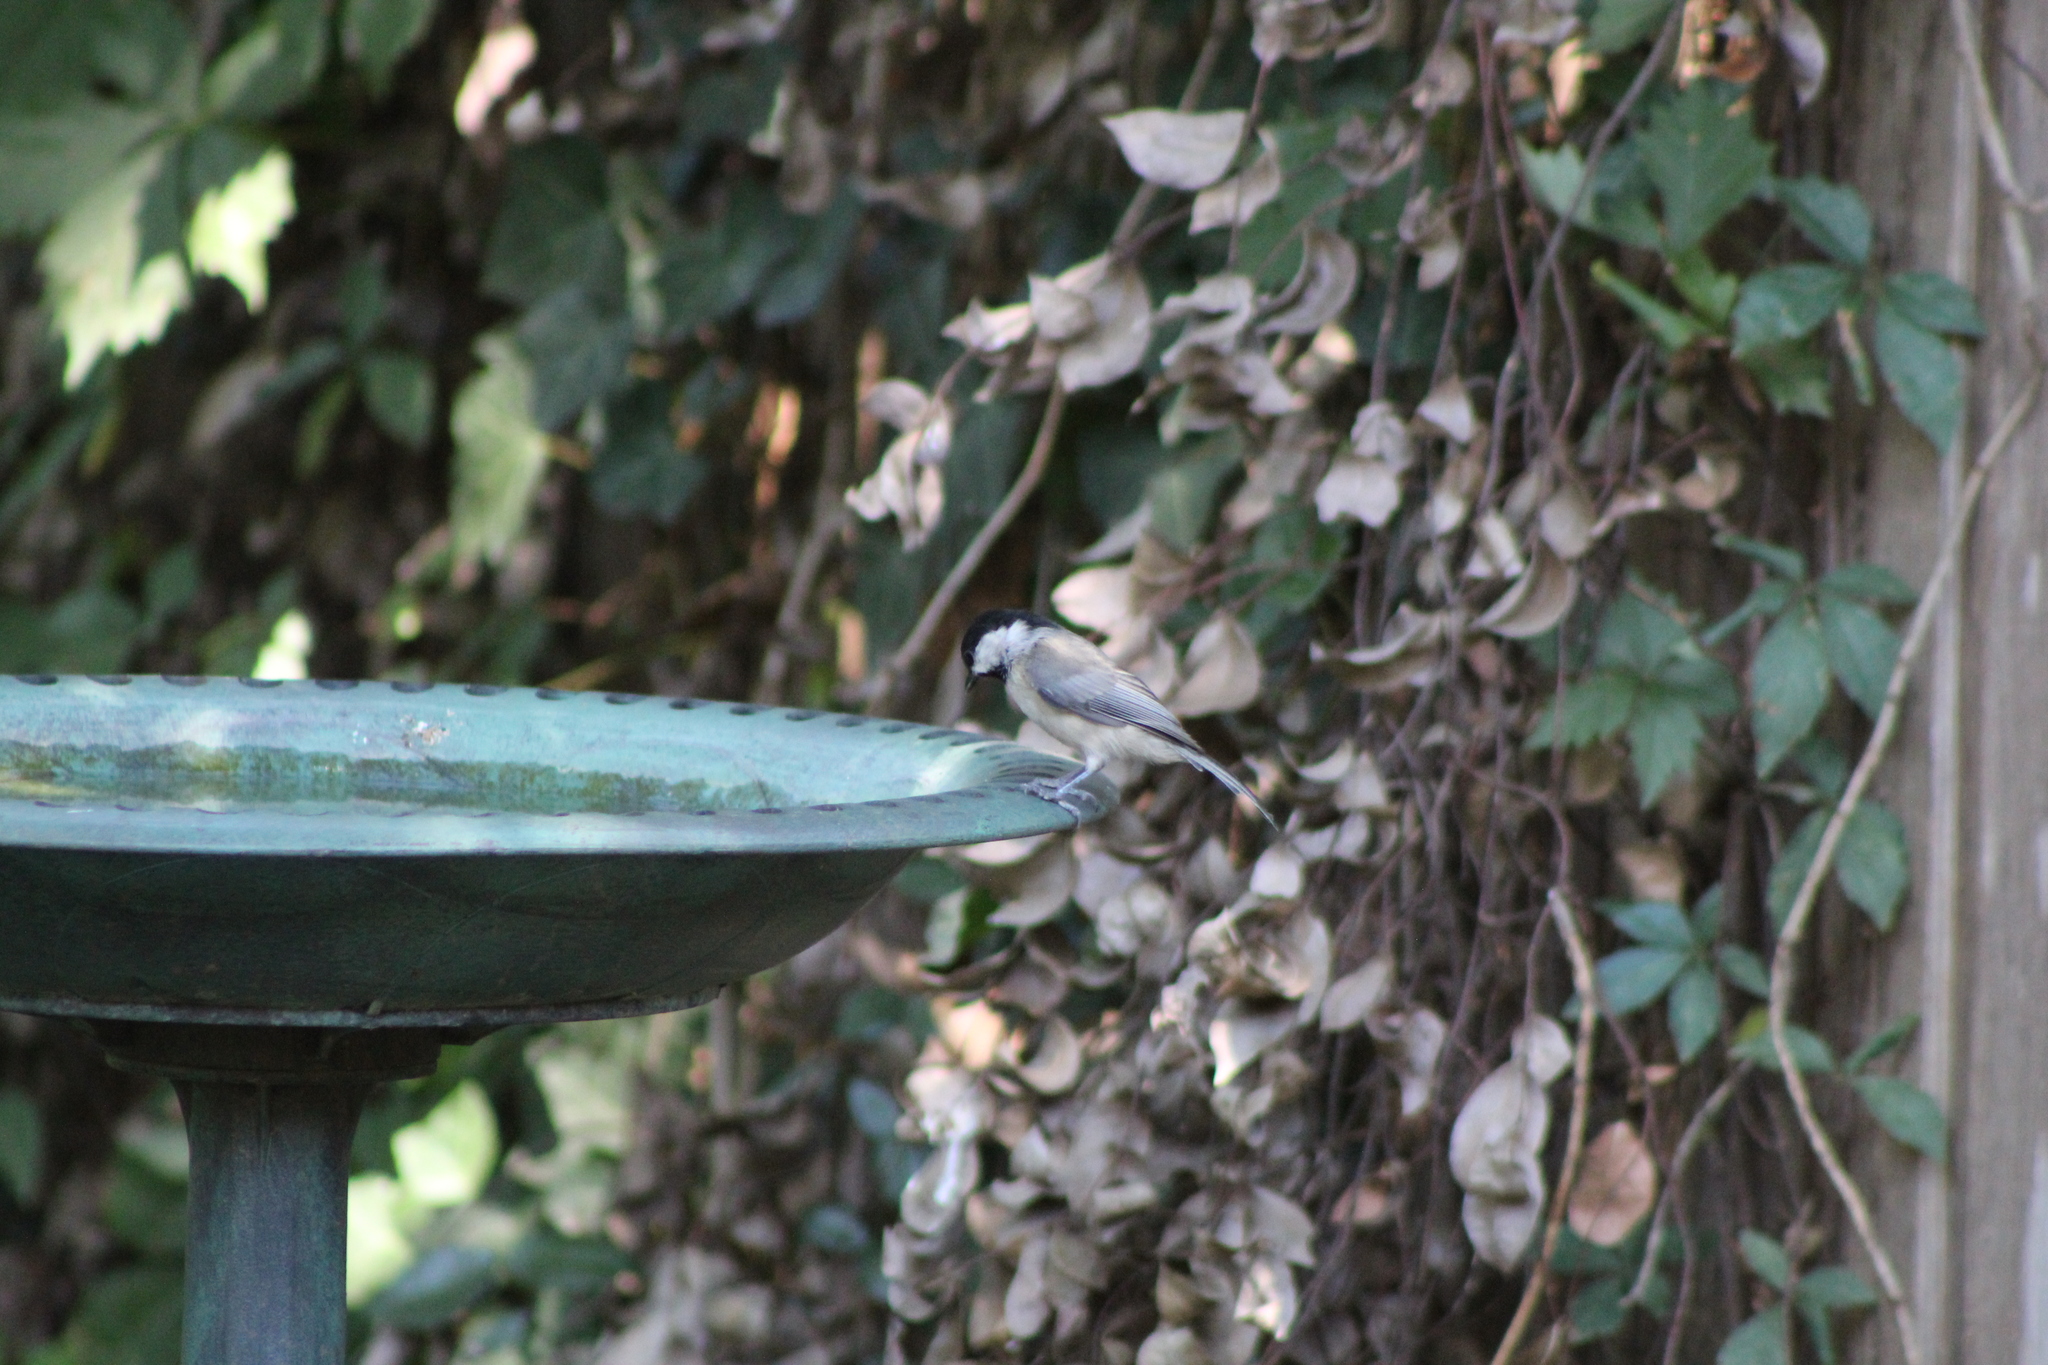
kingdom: Animalia
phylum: Chordata
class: Aves
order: Passeriformes
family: Paridae
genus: Poecile
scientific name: Poecile carolinensis
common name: Carolina chickadee
